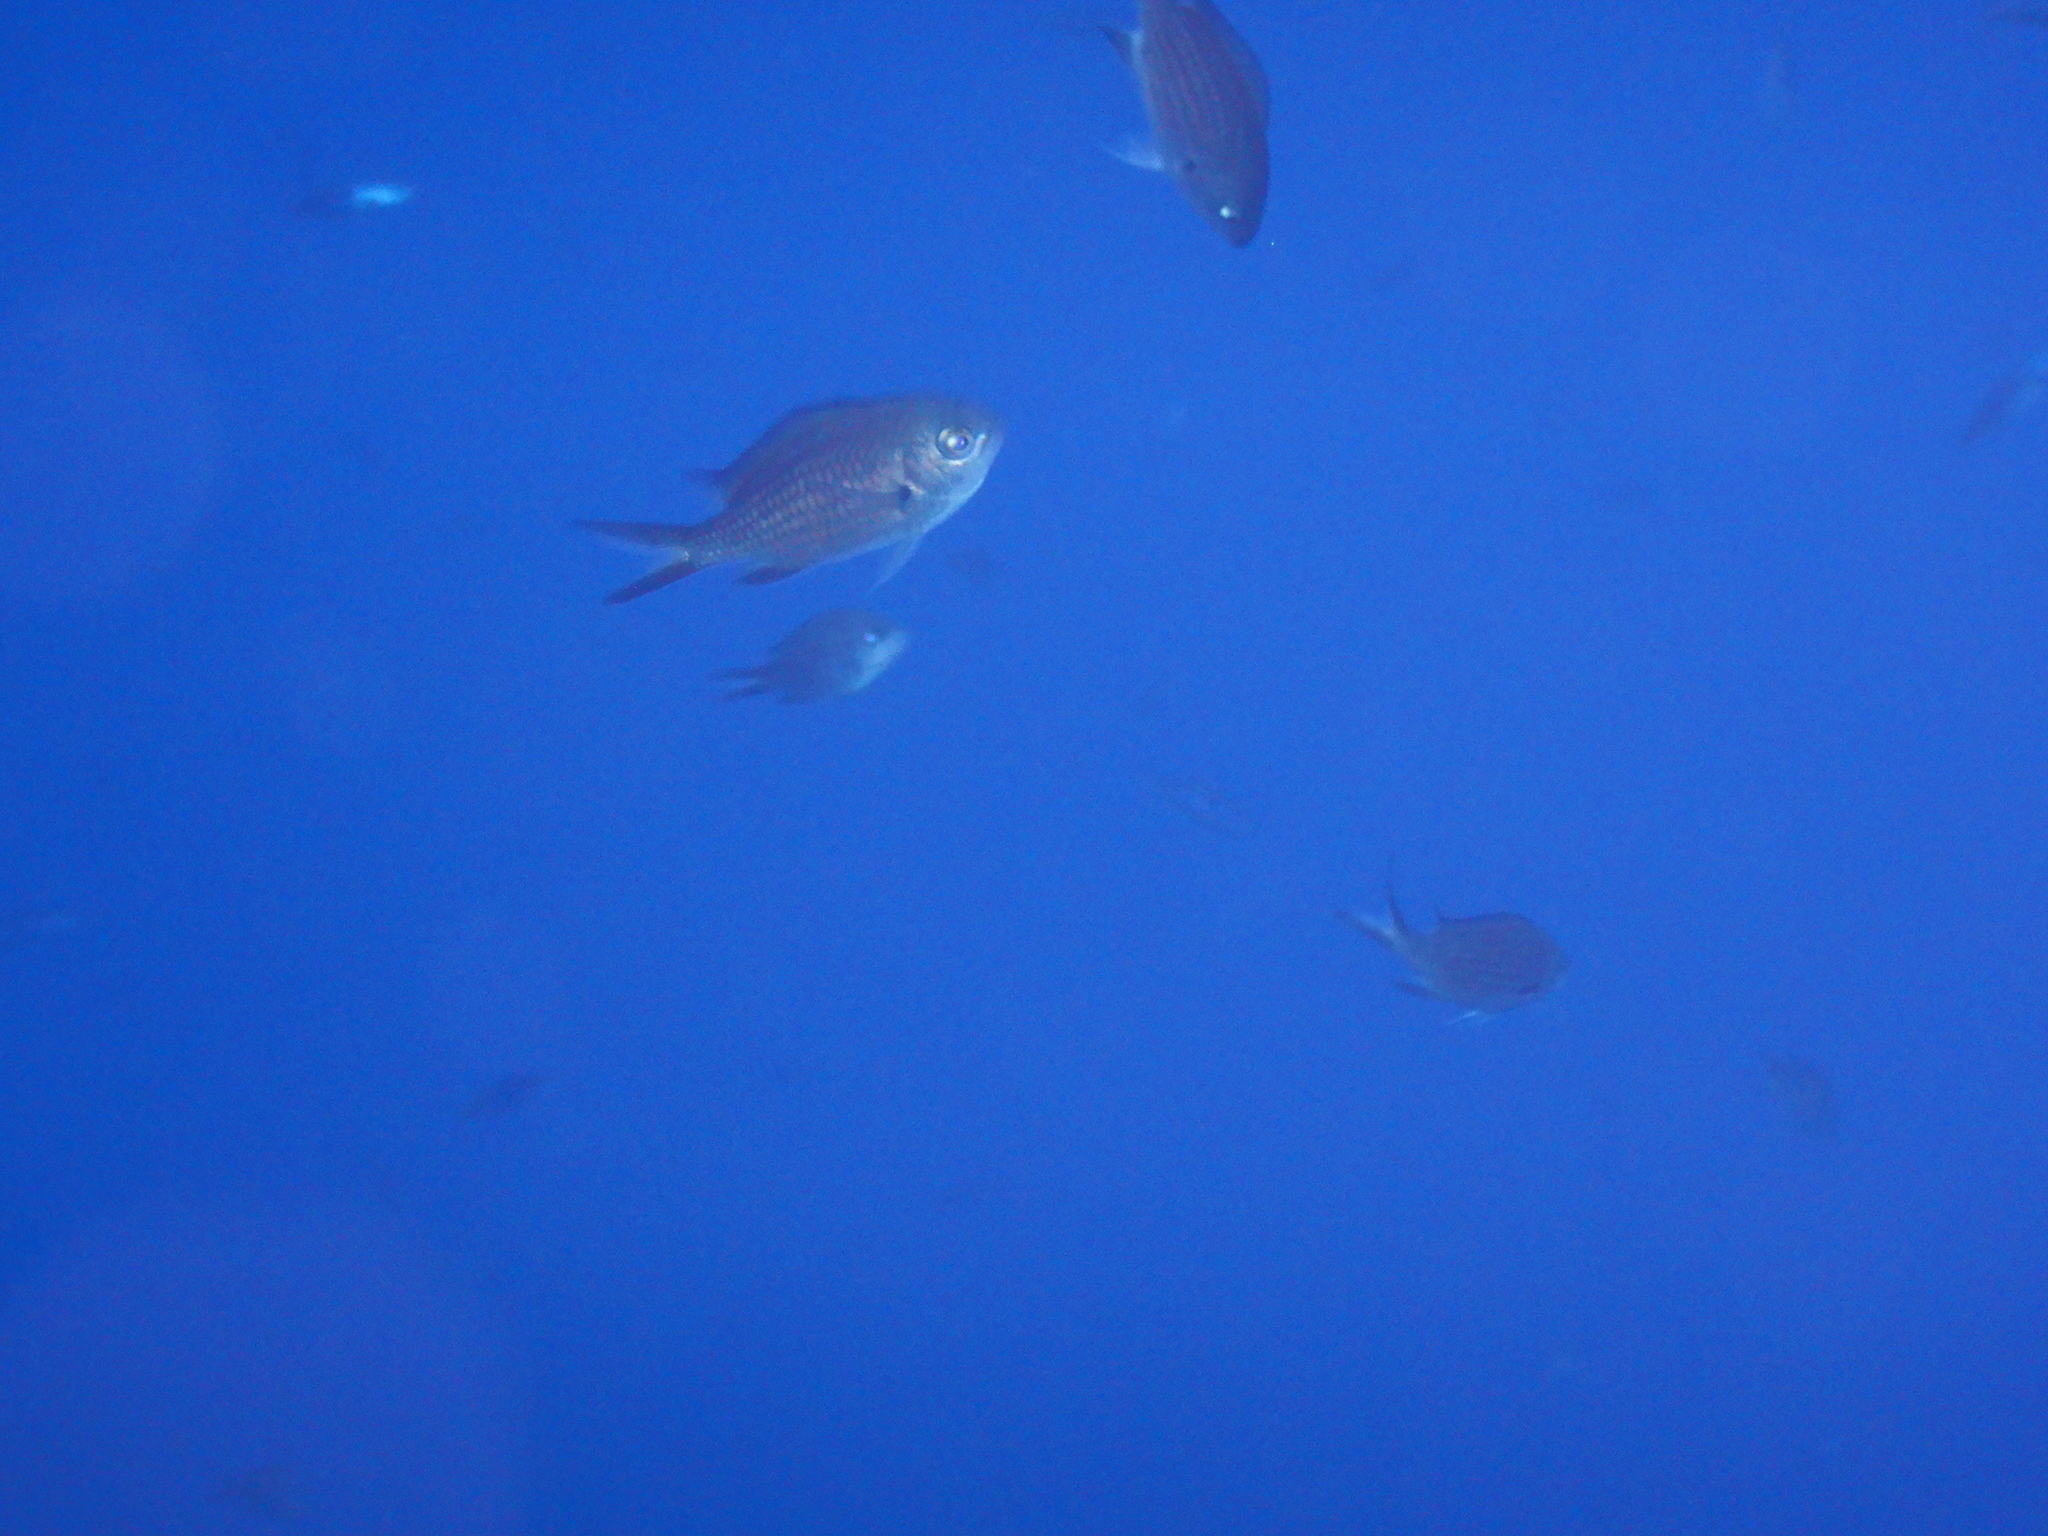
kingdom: Animalia
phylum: Chordata
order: Perciformes
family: Pomacentridae
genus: Chromis
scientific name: Chromis chromis
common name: Damselfish
